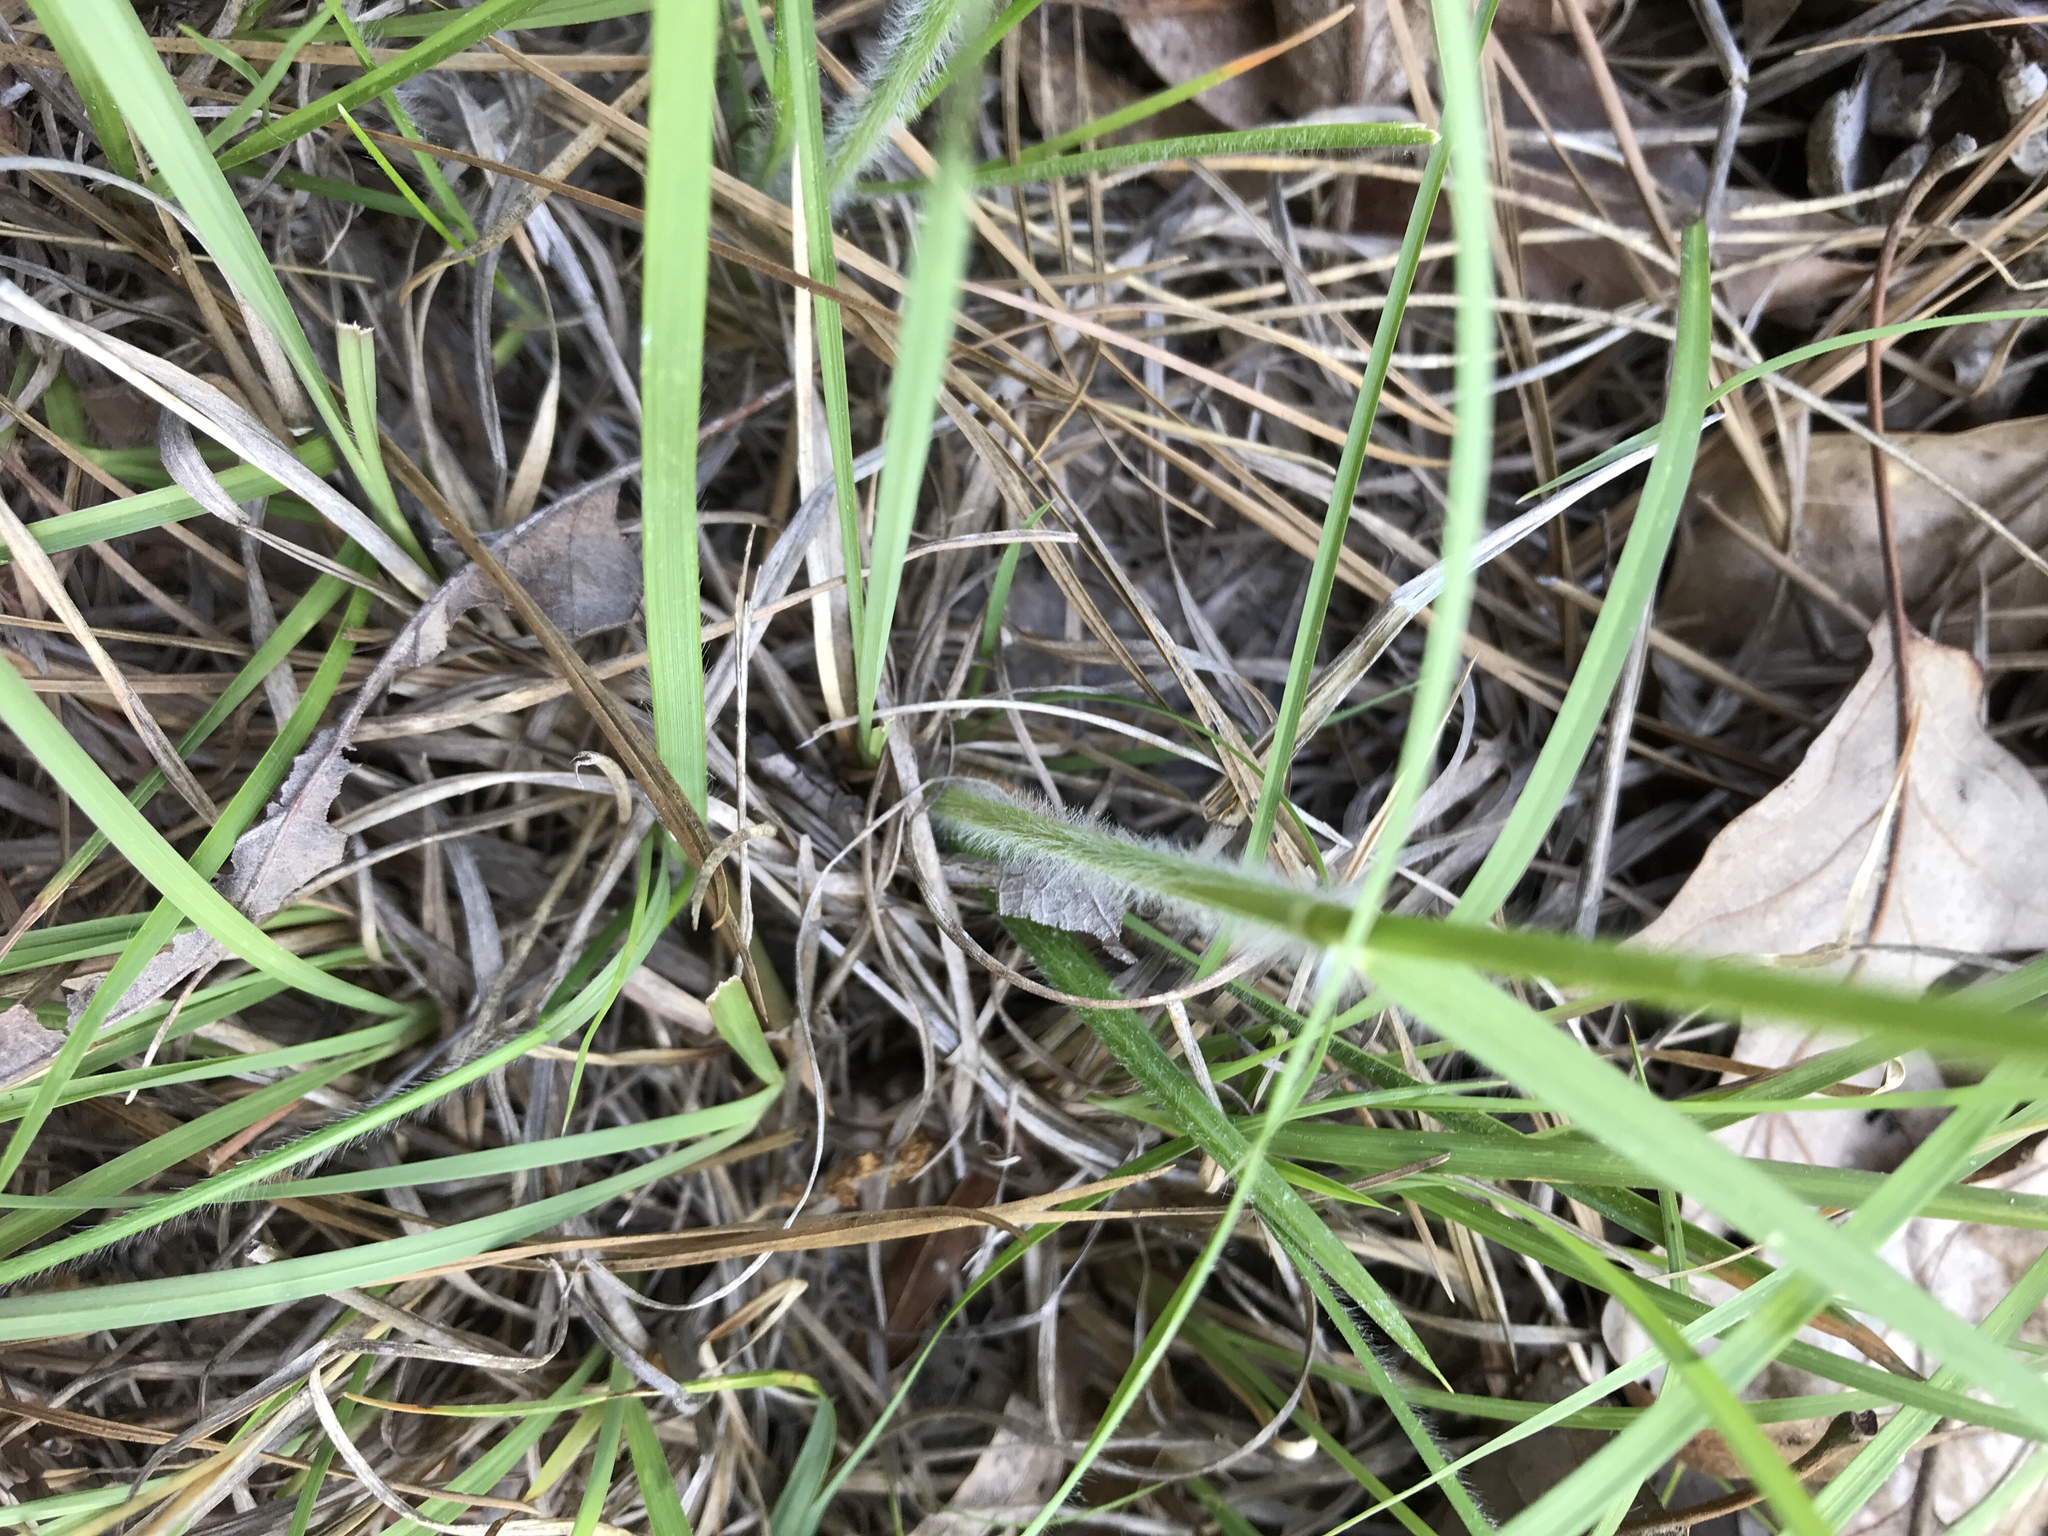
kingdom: Plantae
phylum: Tracheophyta
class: Liliopsida
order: Poales
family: Poaceae
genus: Danthonia
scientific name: Danthonia sericea
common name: Downy danthonia
